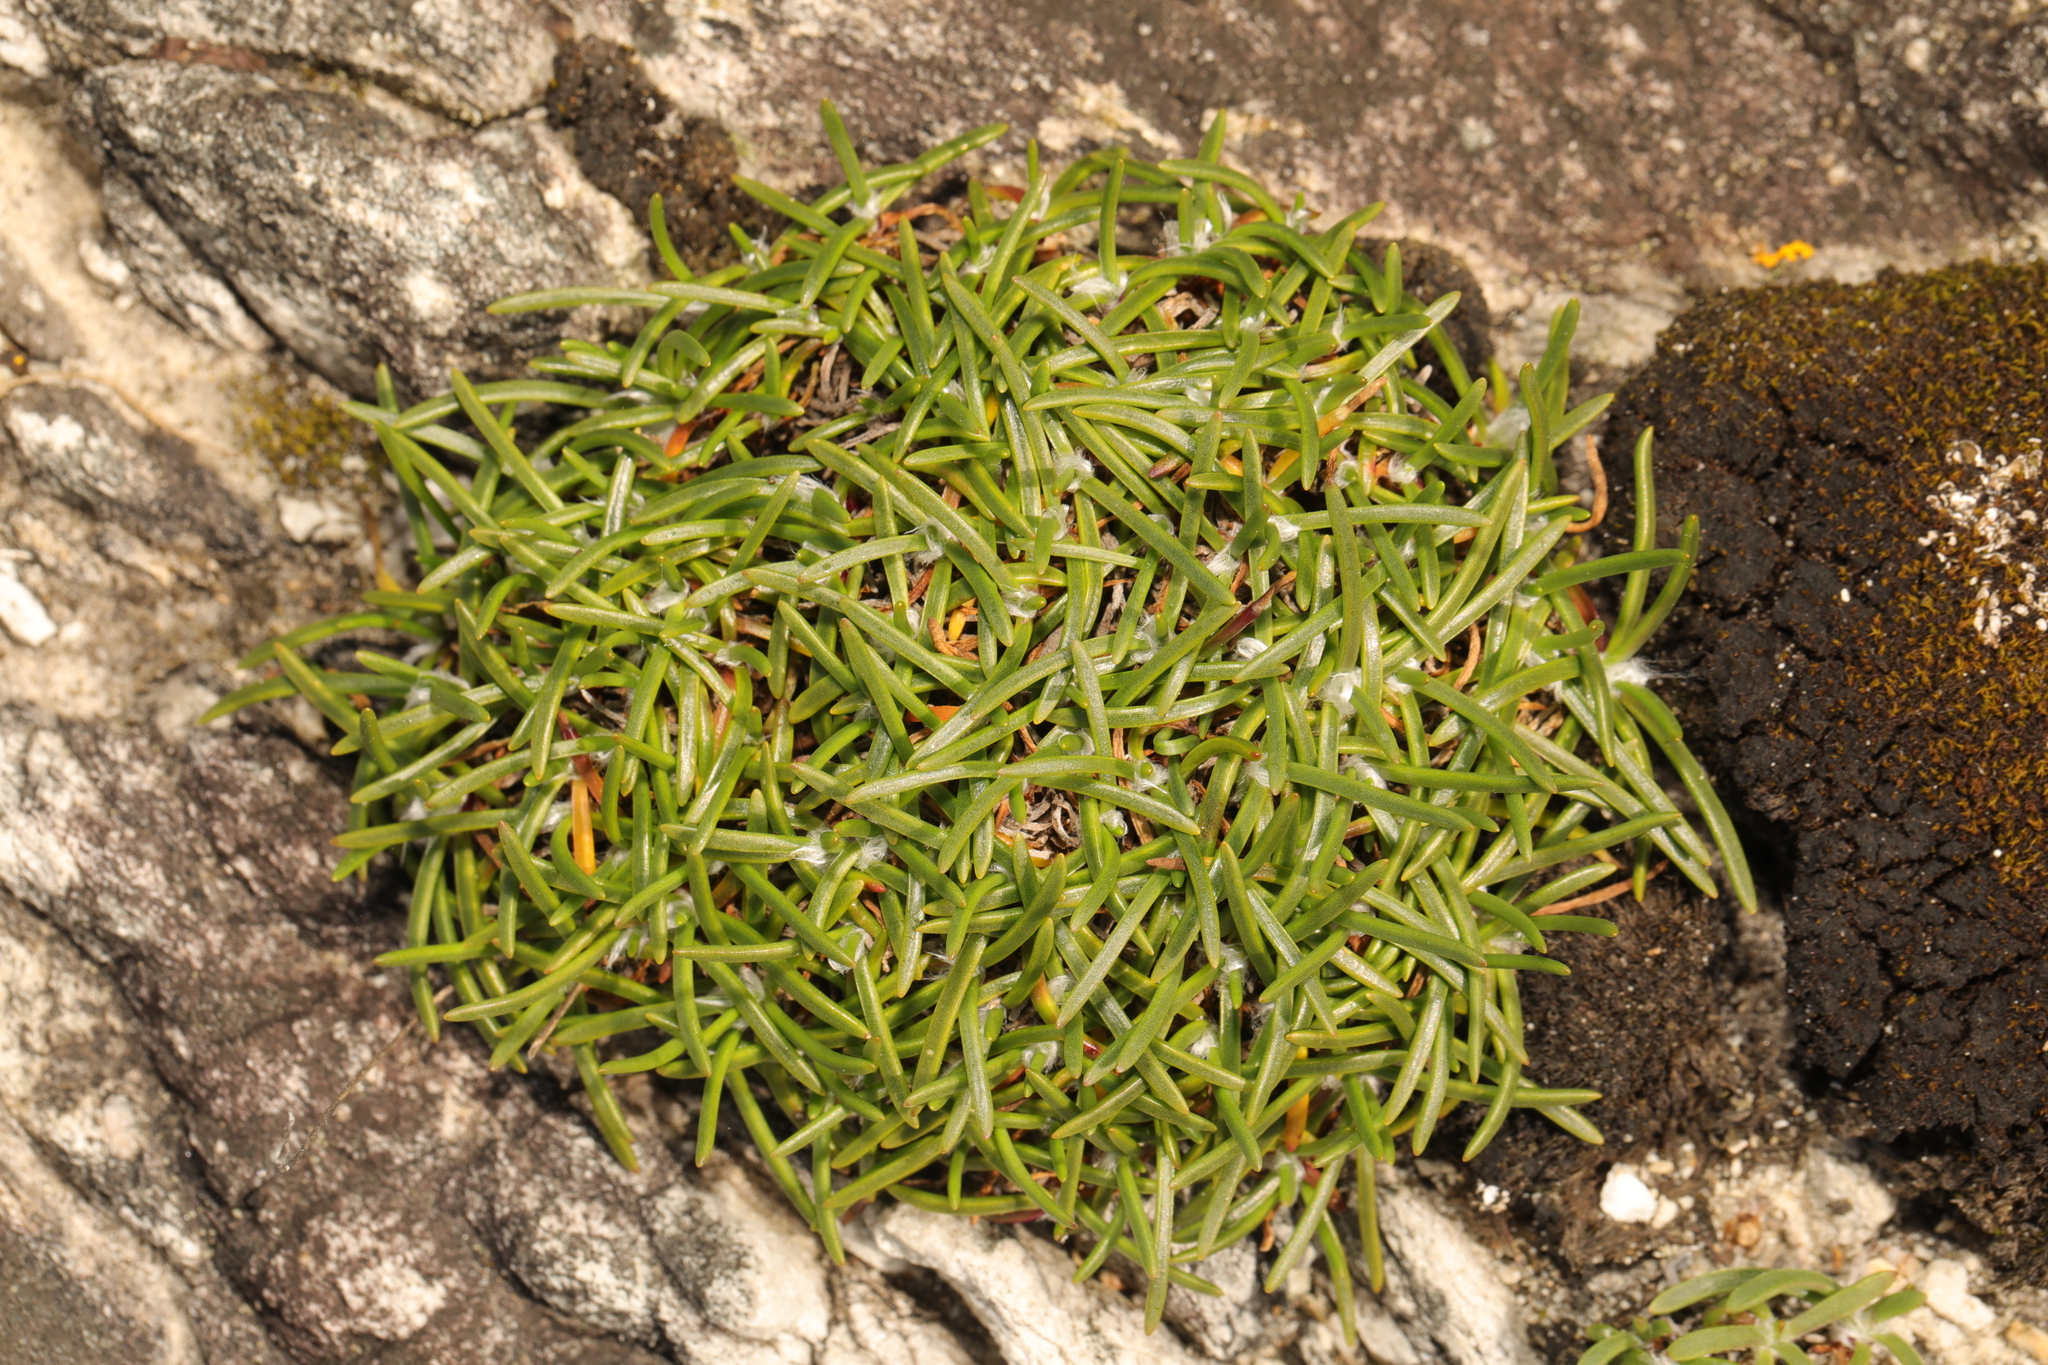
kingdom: Plantae
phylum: Tracheophyta
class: Magnoliopsida
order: Caryophyllales
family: Plumbaginaceae
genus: Armeria
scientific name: Armeria maritima
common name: Thrift
